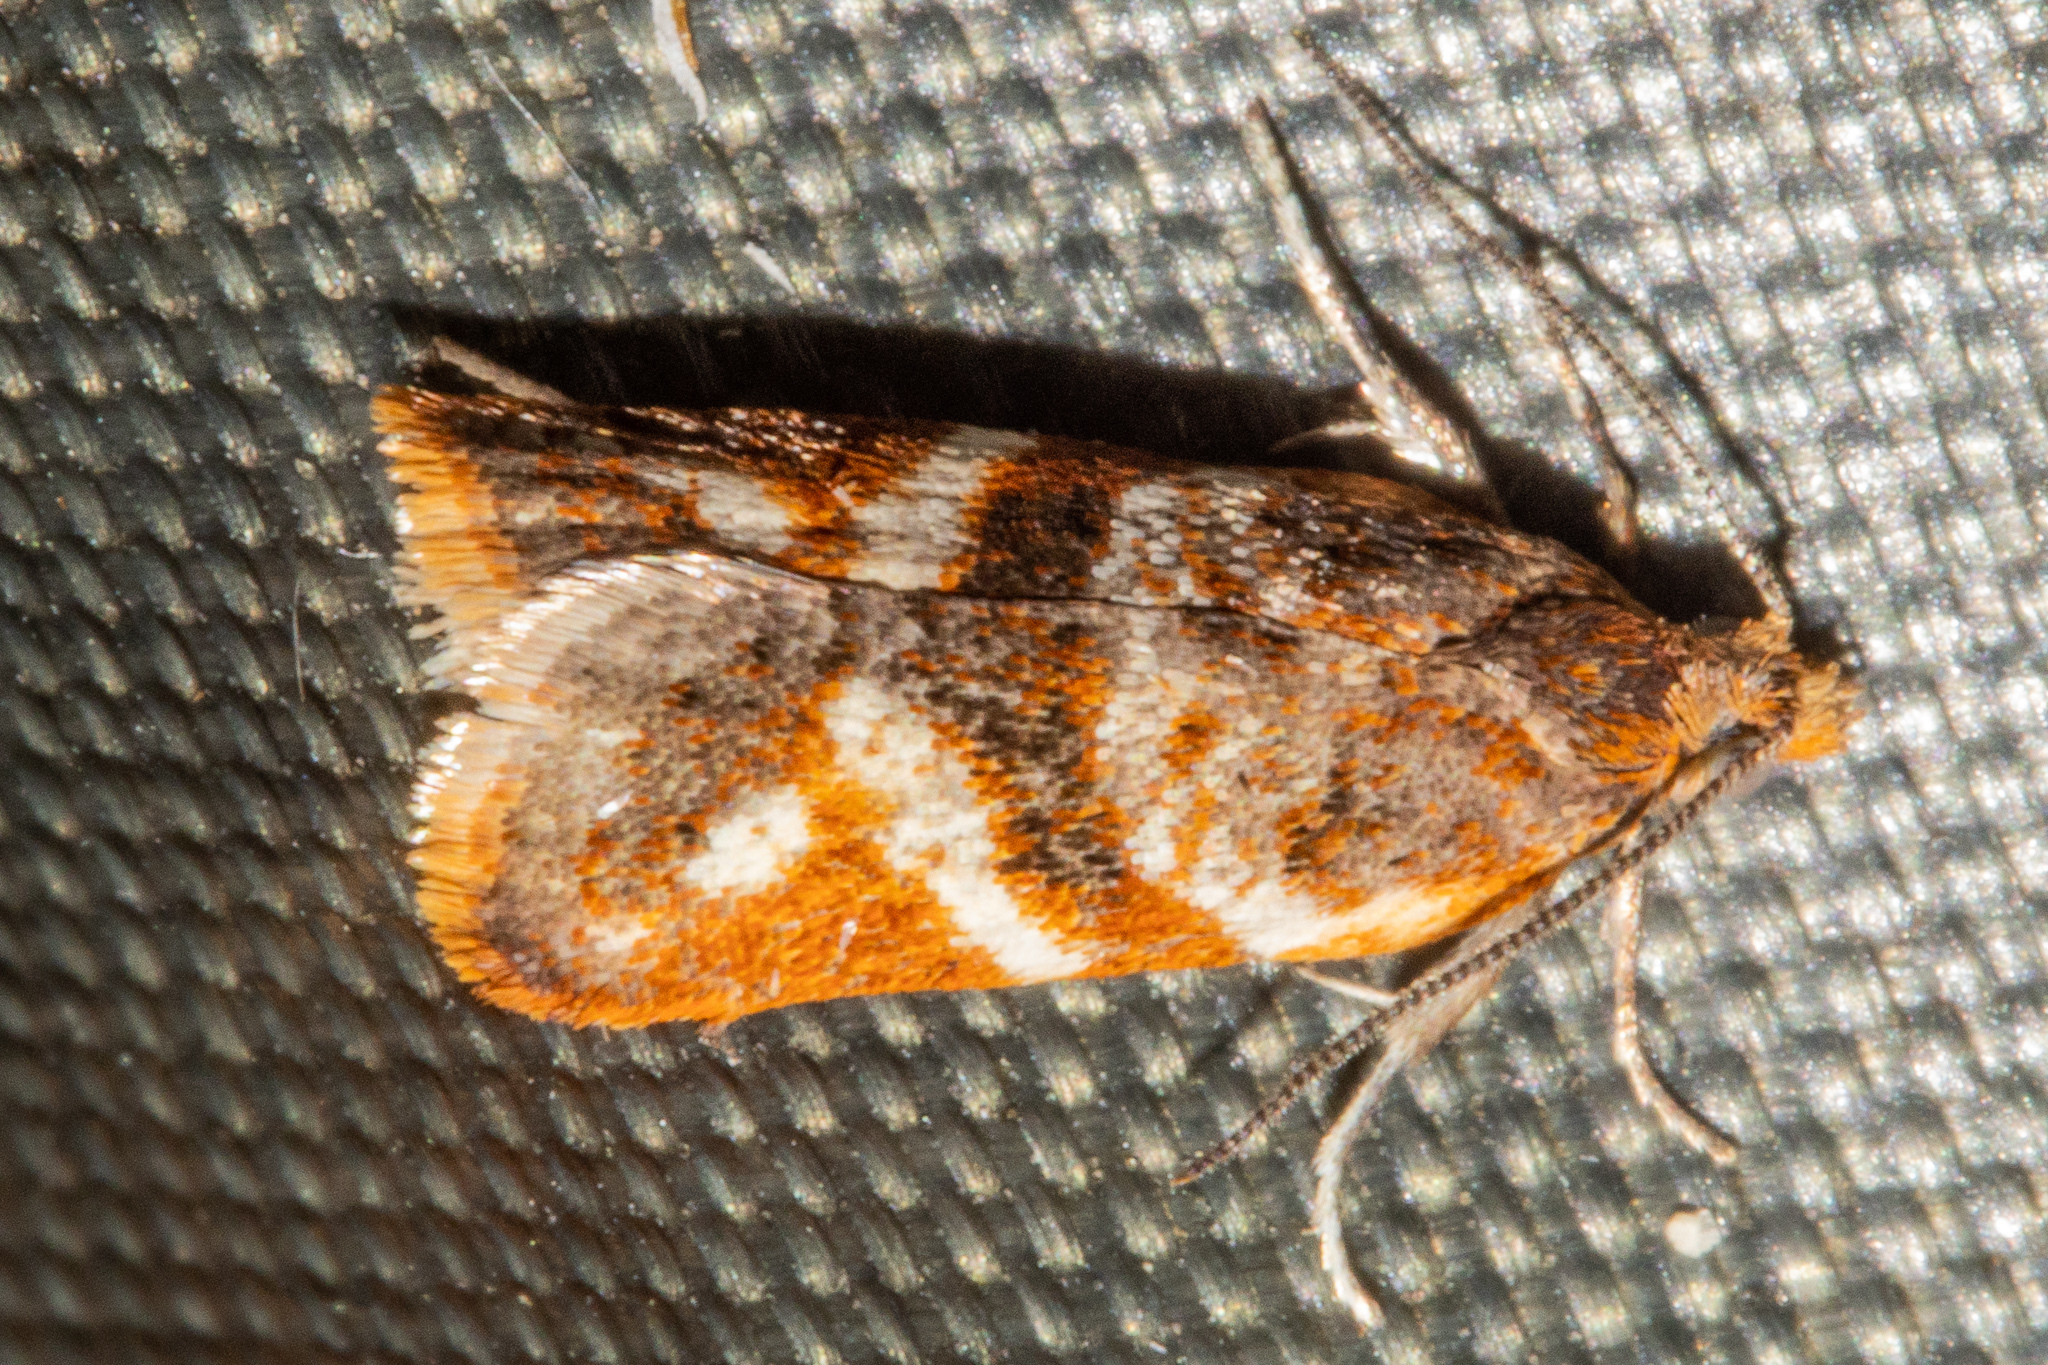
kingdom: Animalia
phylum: Arthropoda
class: Insecta
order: Lepidoptera
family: Tortricidae
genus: Harmologa
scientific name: Harmologa sanguinea
